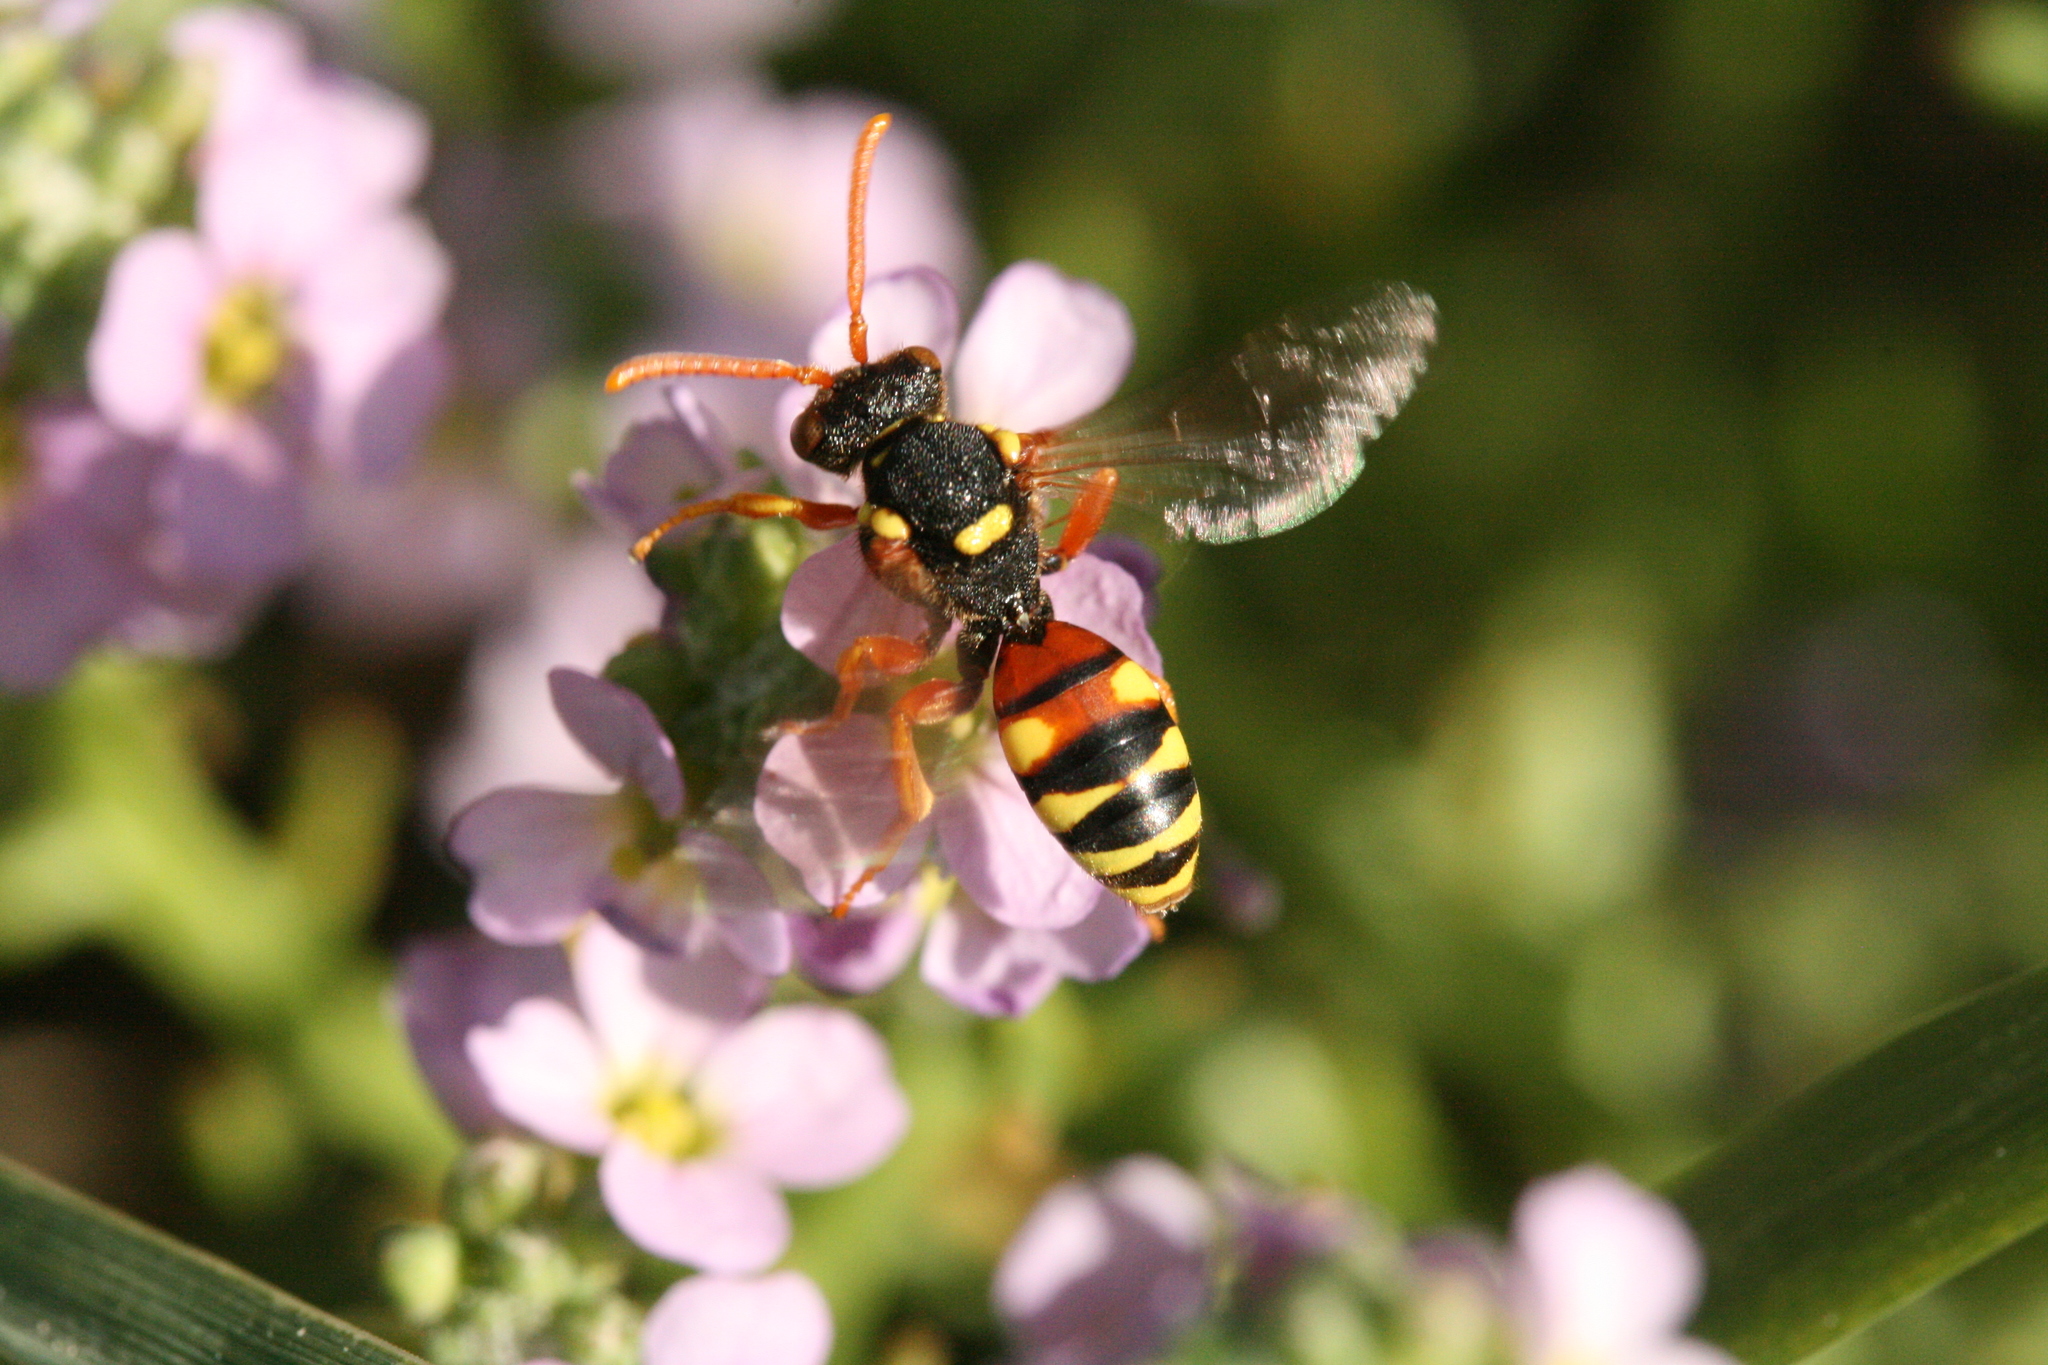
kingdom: Animalia
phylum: Arthropoda
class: Insecta
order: Hymenoptera
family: Apidae
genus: Nomada
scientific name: Nomada fucata
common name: Painted nomad bee
